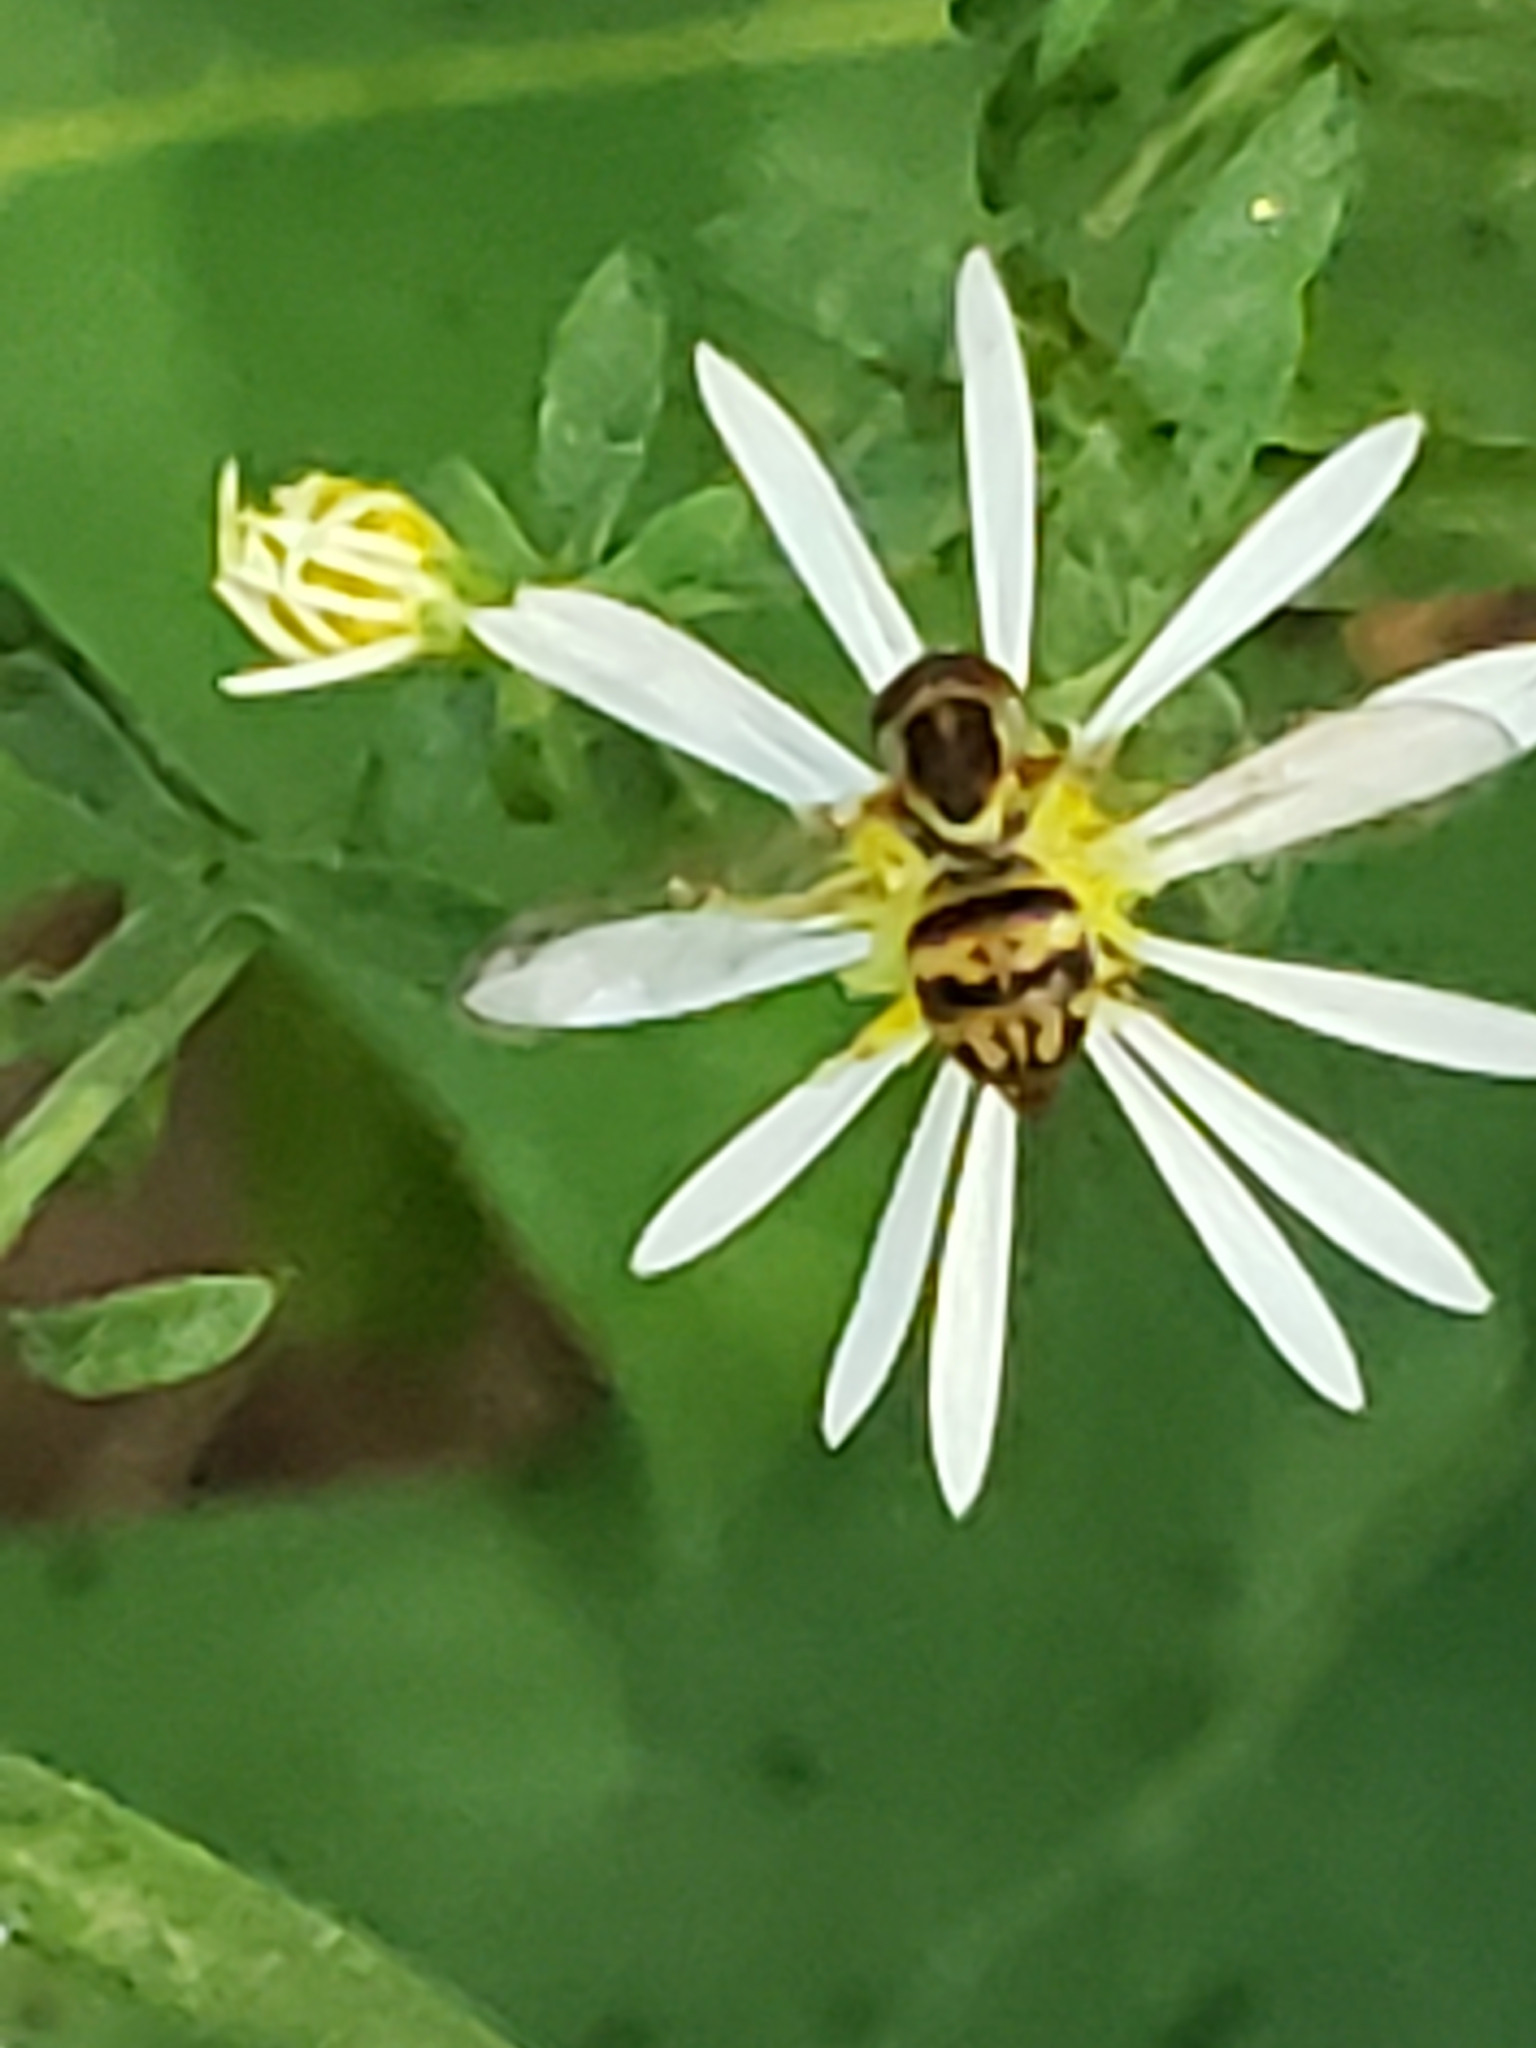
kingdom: Animalia
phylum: Arthropoda
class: Insecta
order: Diptera
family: Syrphidae
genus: Toxomerus
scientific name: Toxomerus geminatus
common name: Eastern calligrapher
